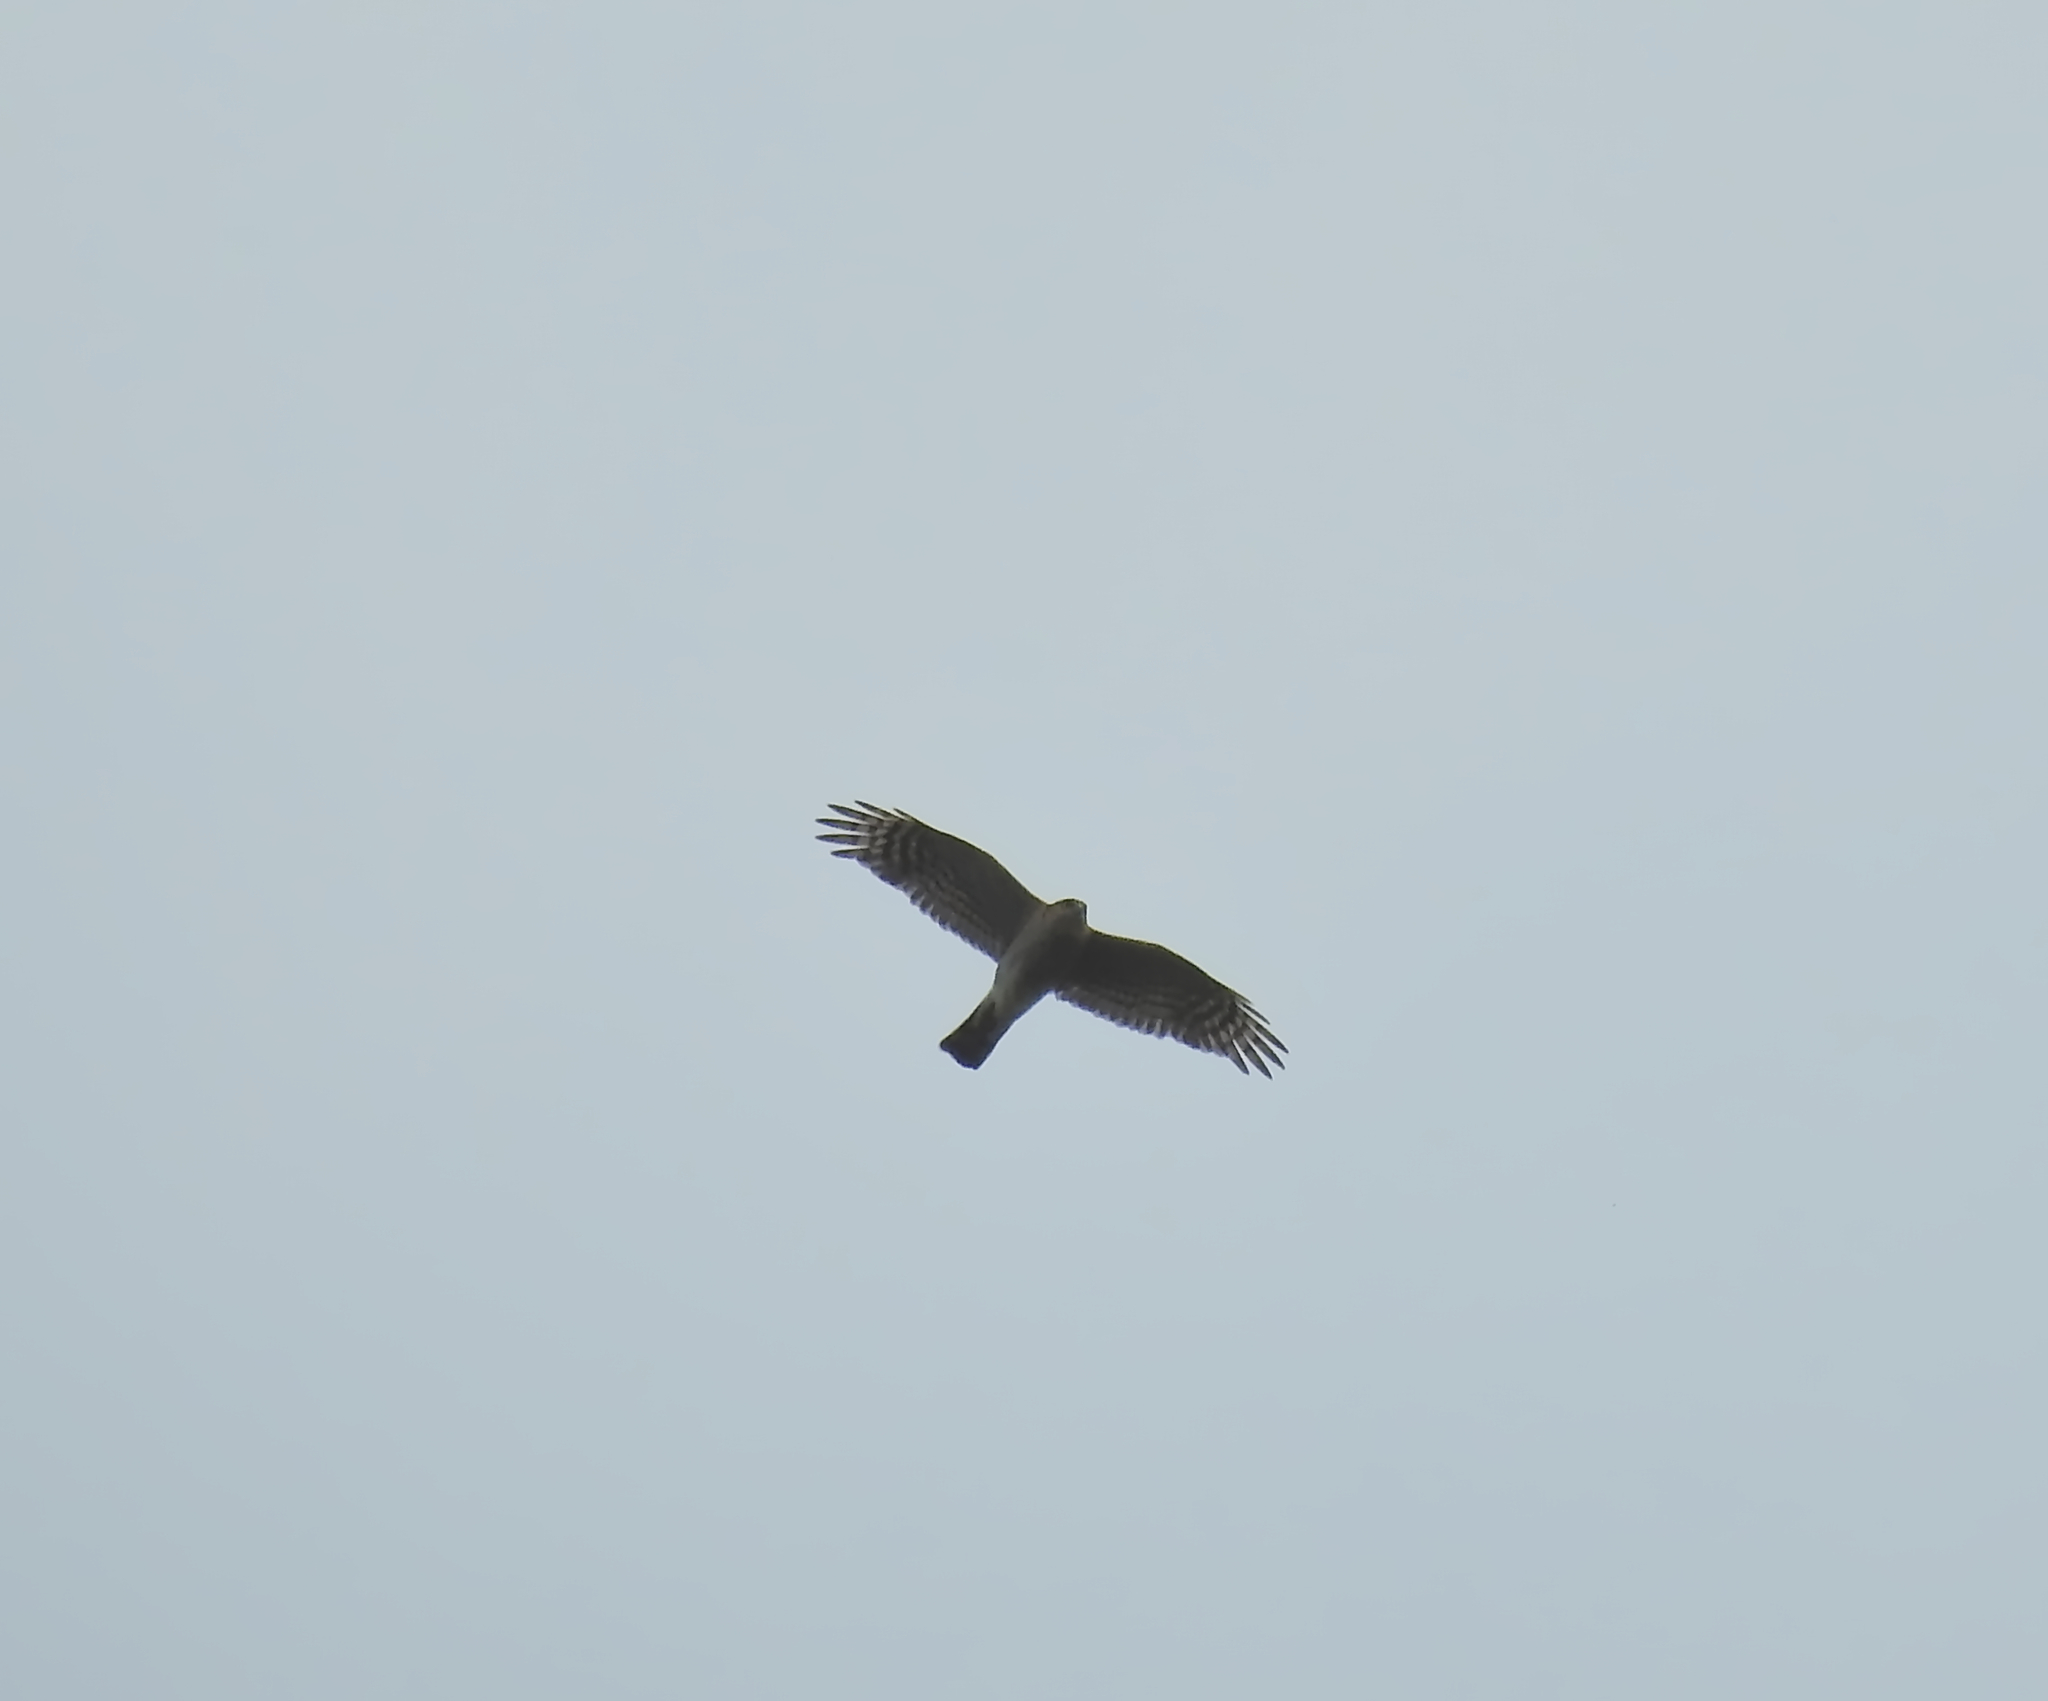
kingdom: Animalia
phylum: Chordata
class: Aves
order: Accipitriformes
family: Accipitridae
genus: Accipiter
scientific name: Accipiter nisus
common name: Eurasian sparrowhawk
